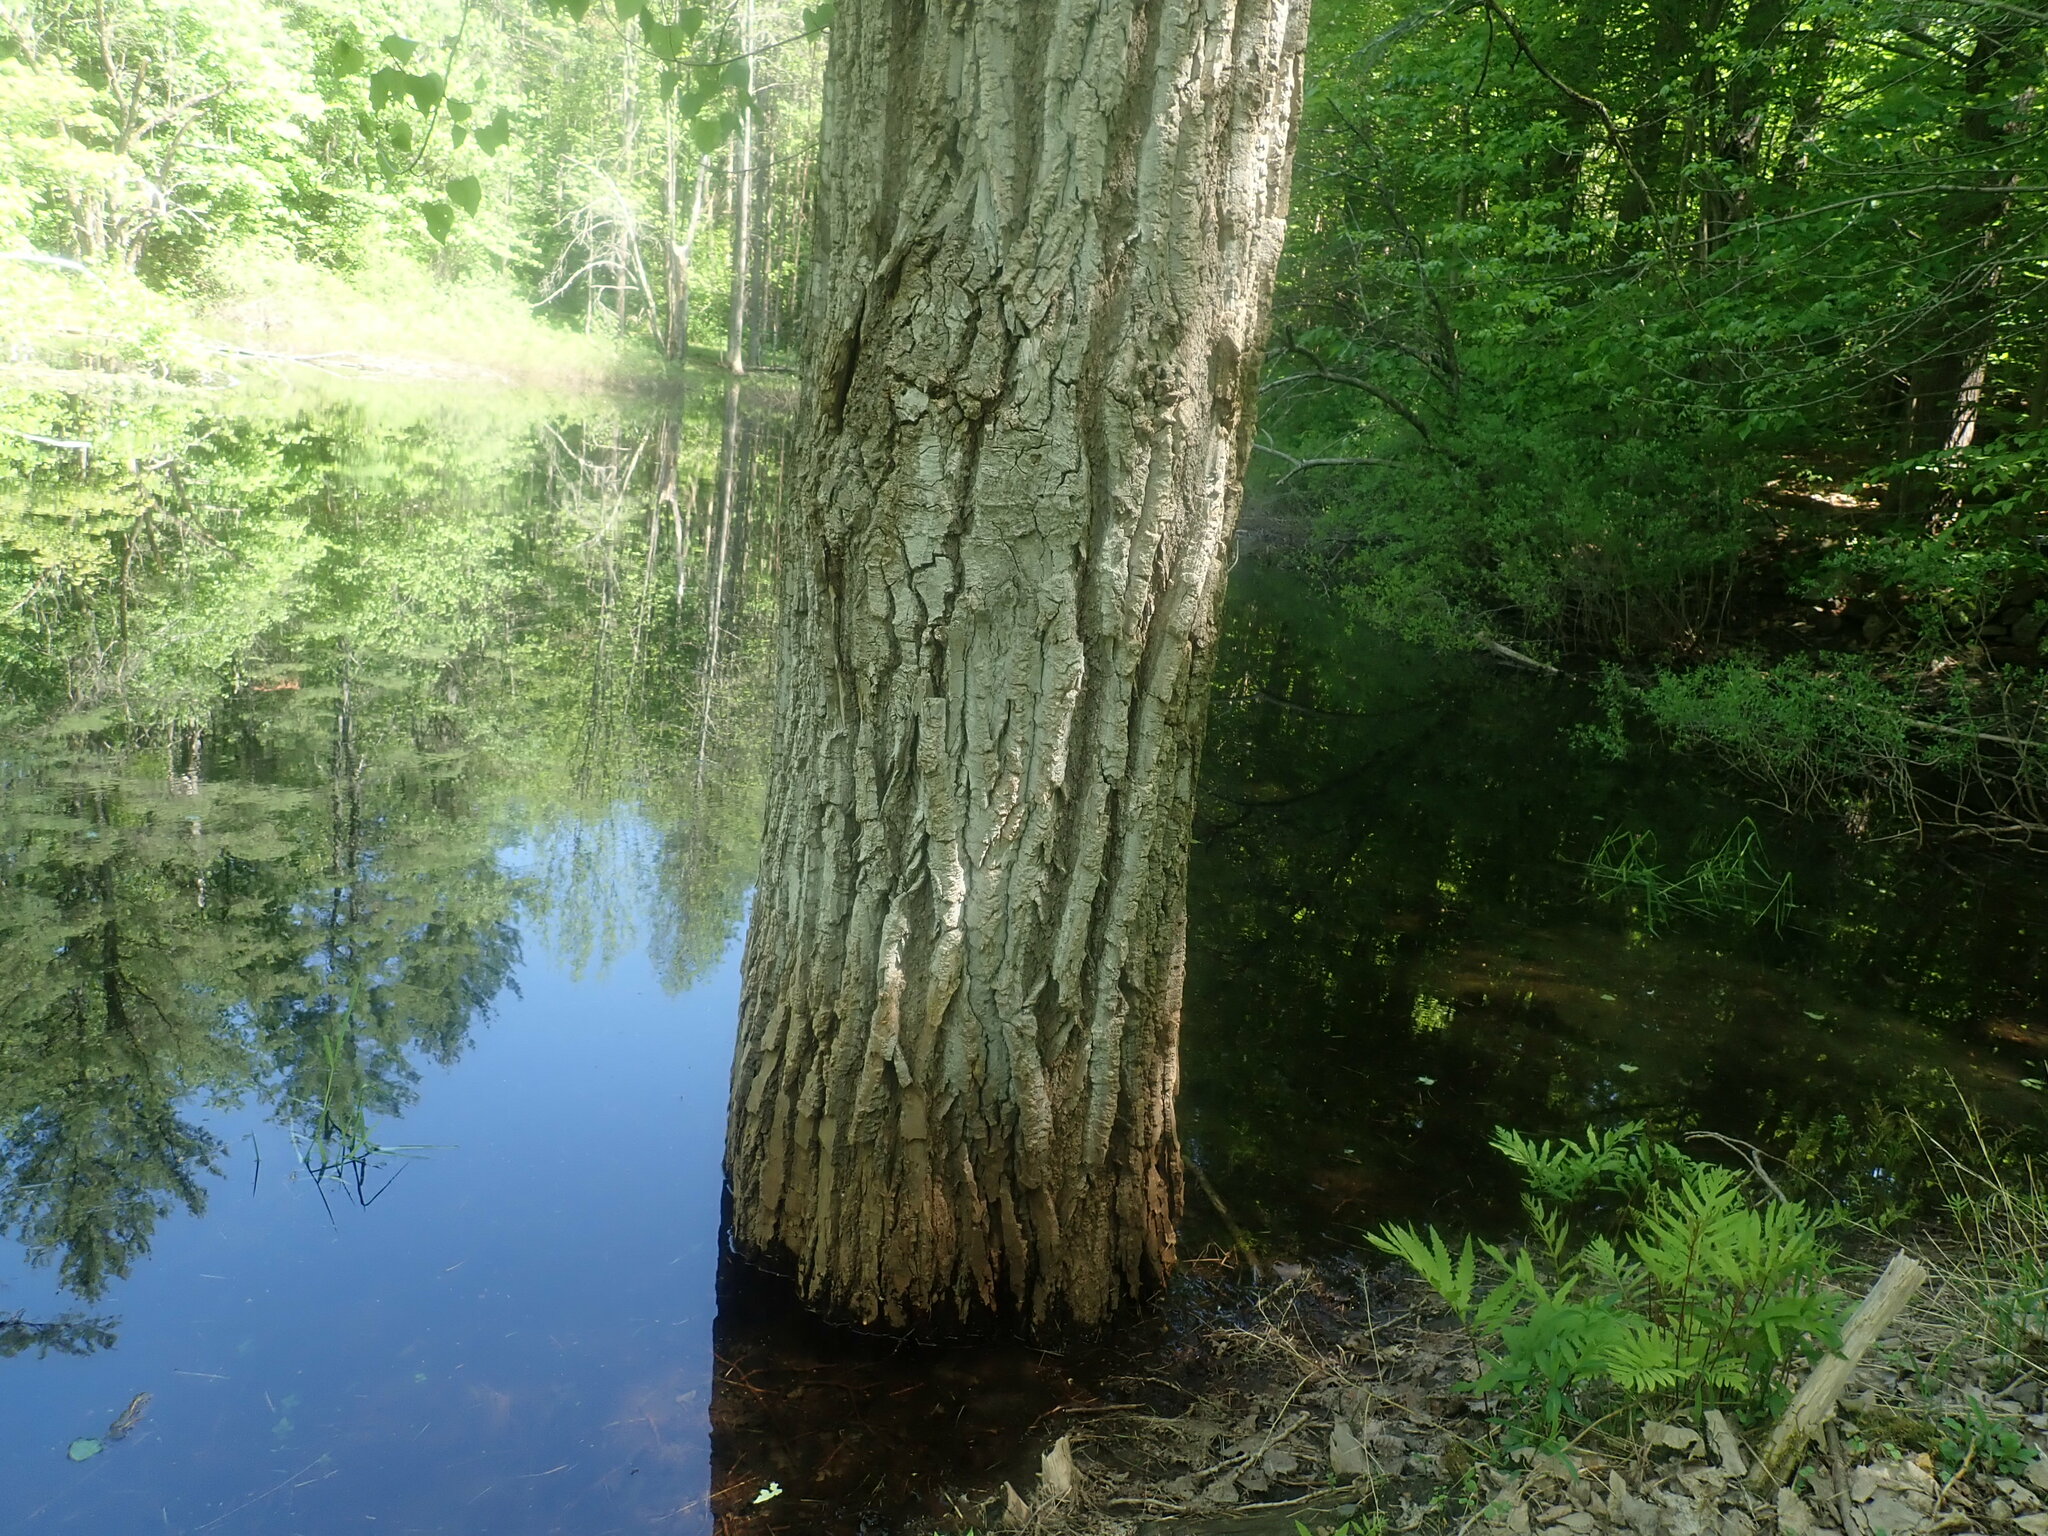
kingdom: Plantae
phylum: Tracheophyta
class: Magnoliopsida
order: Malpighiales
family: Salicaceae
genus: Populus
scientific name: Populus deltoides
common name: Eastern cottonwood
